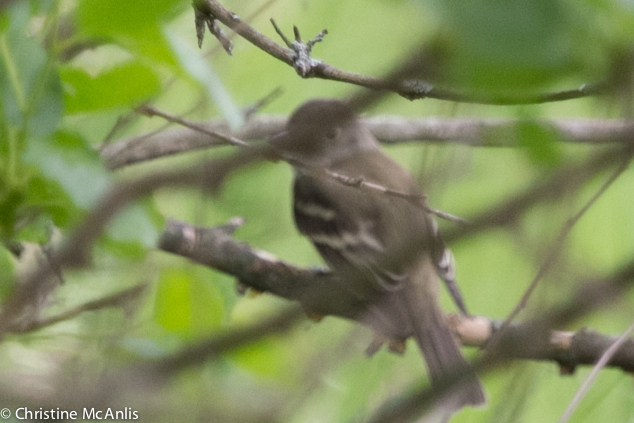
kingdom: Animalia
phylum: Chordata
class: Aves
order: Passeriformes
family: Tyrannidae
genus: Empidonax
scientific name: Empidonax
